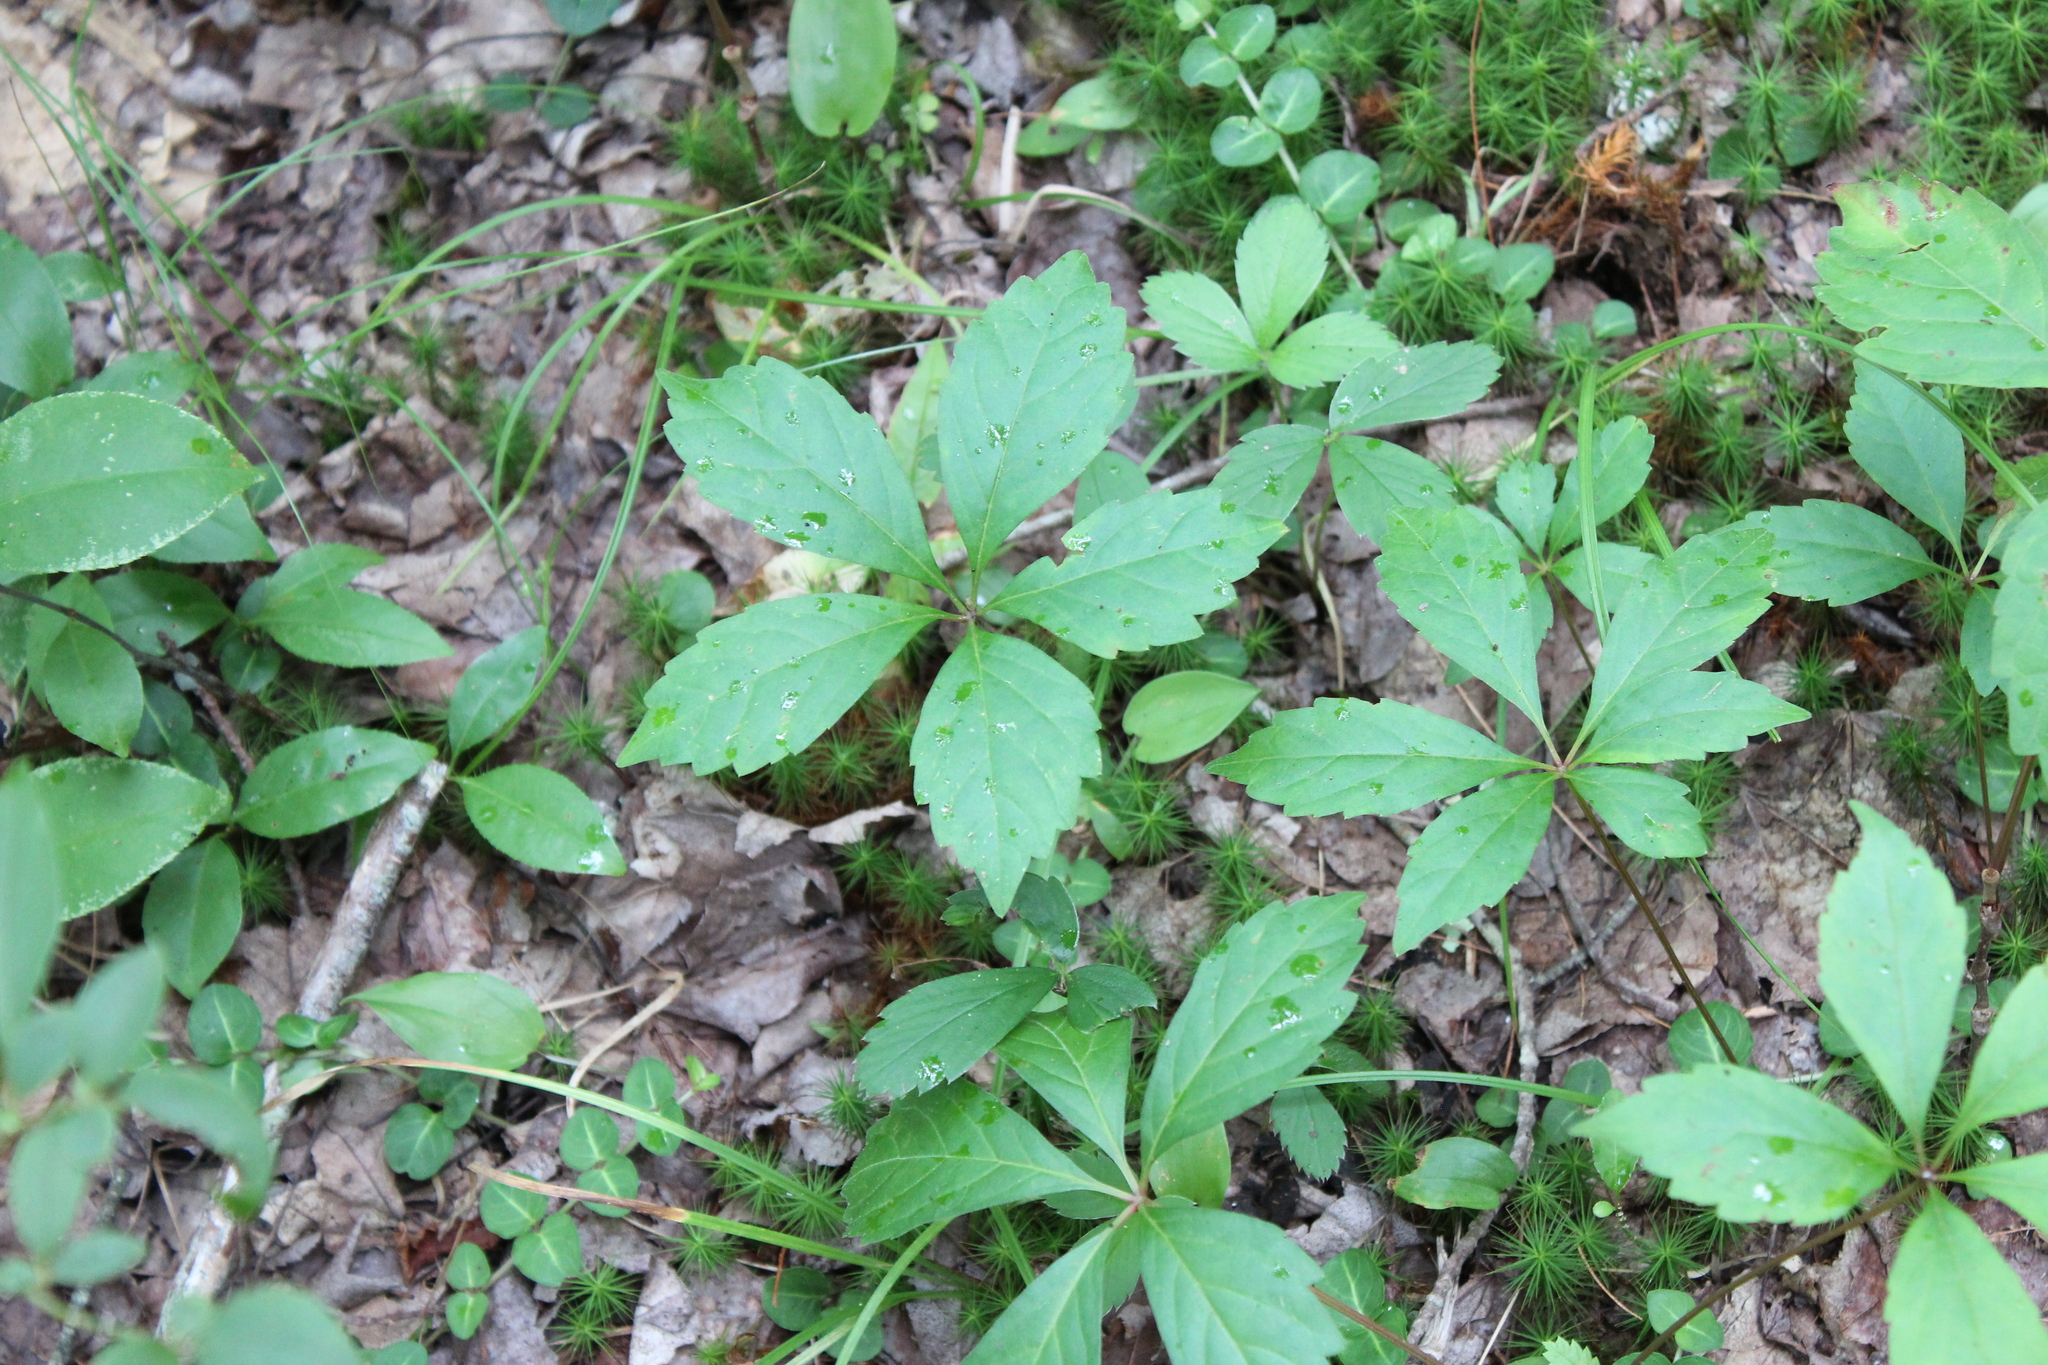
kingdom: Plantae
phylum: Tracheophyta
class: Magnoliopsida
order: Vitales
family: Vitaceae
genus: Parthenocissus
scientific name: Parthenocissus quinquefolia
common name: Virginia-creeper
